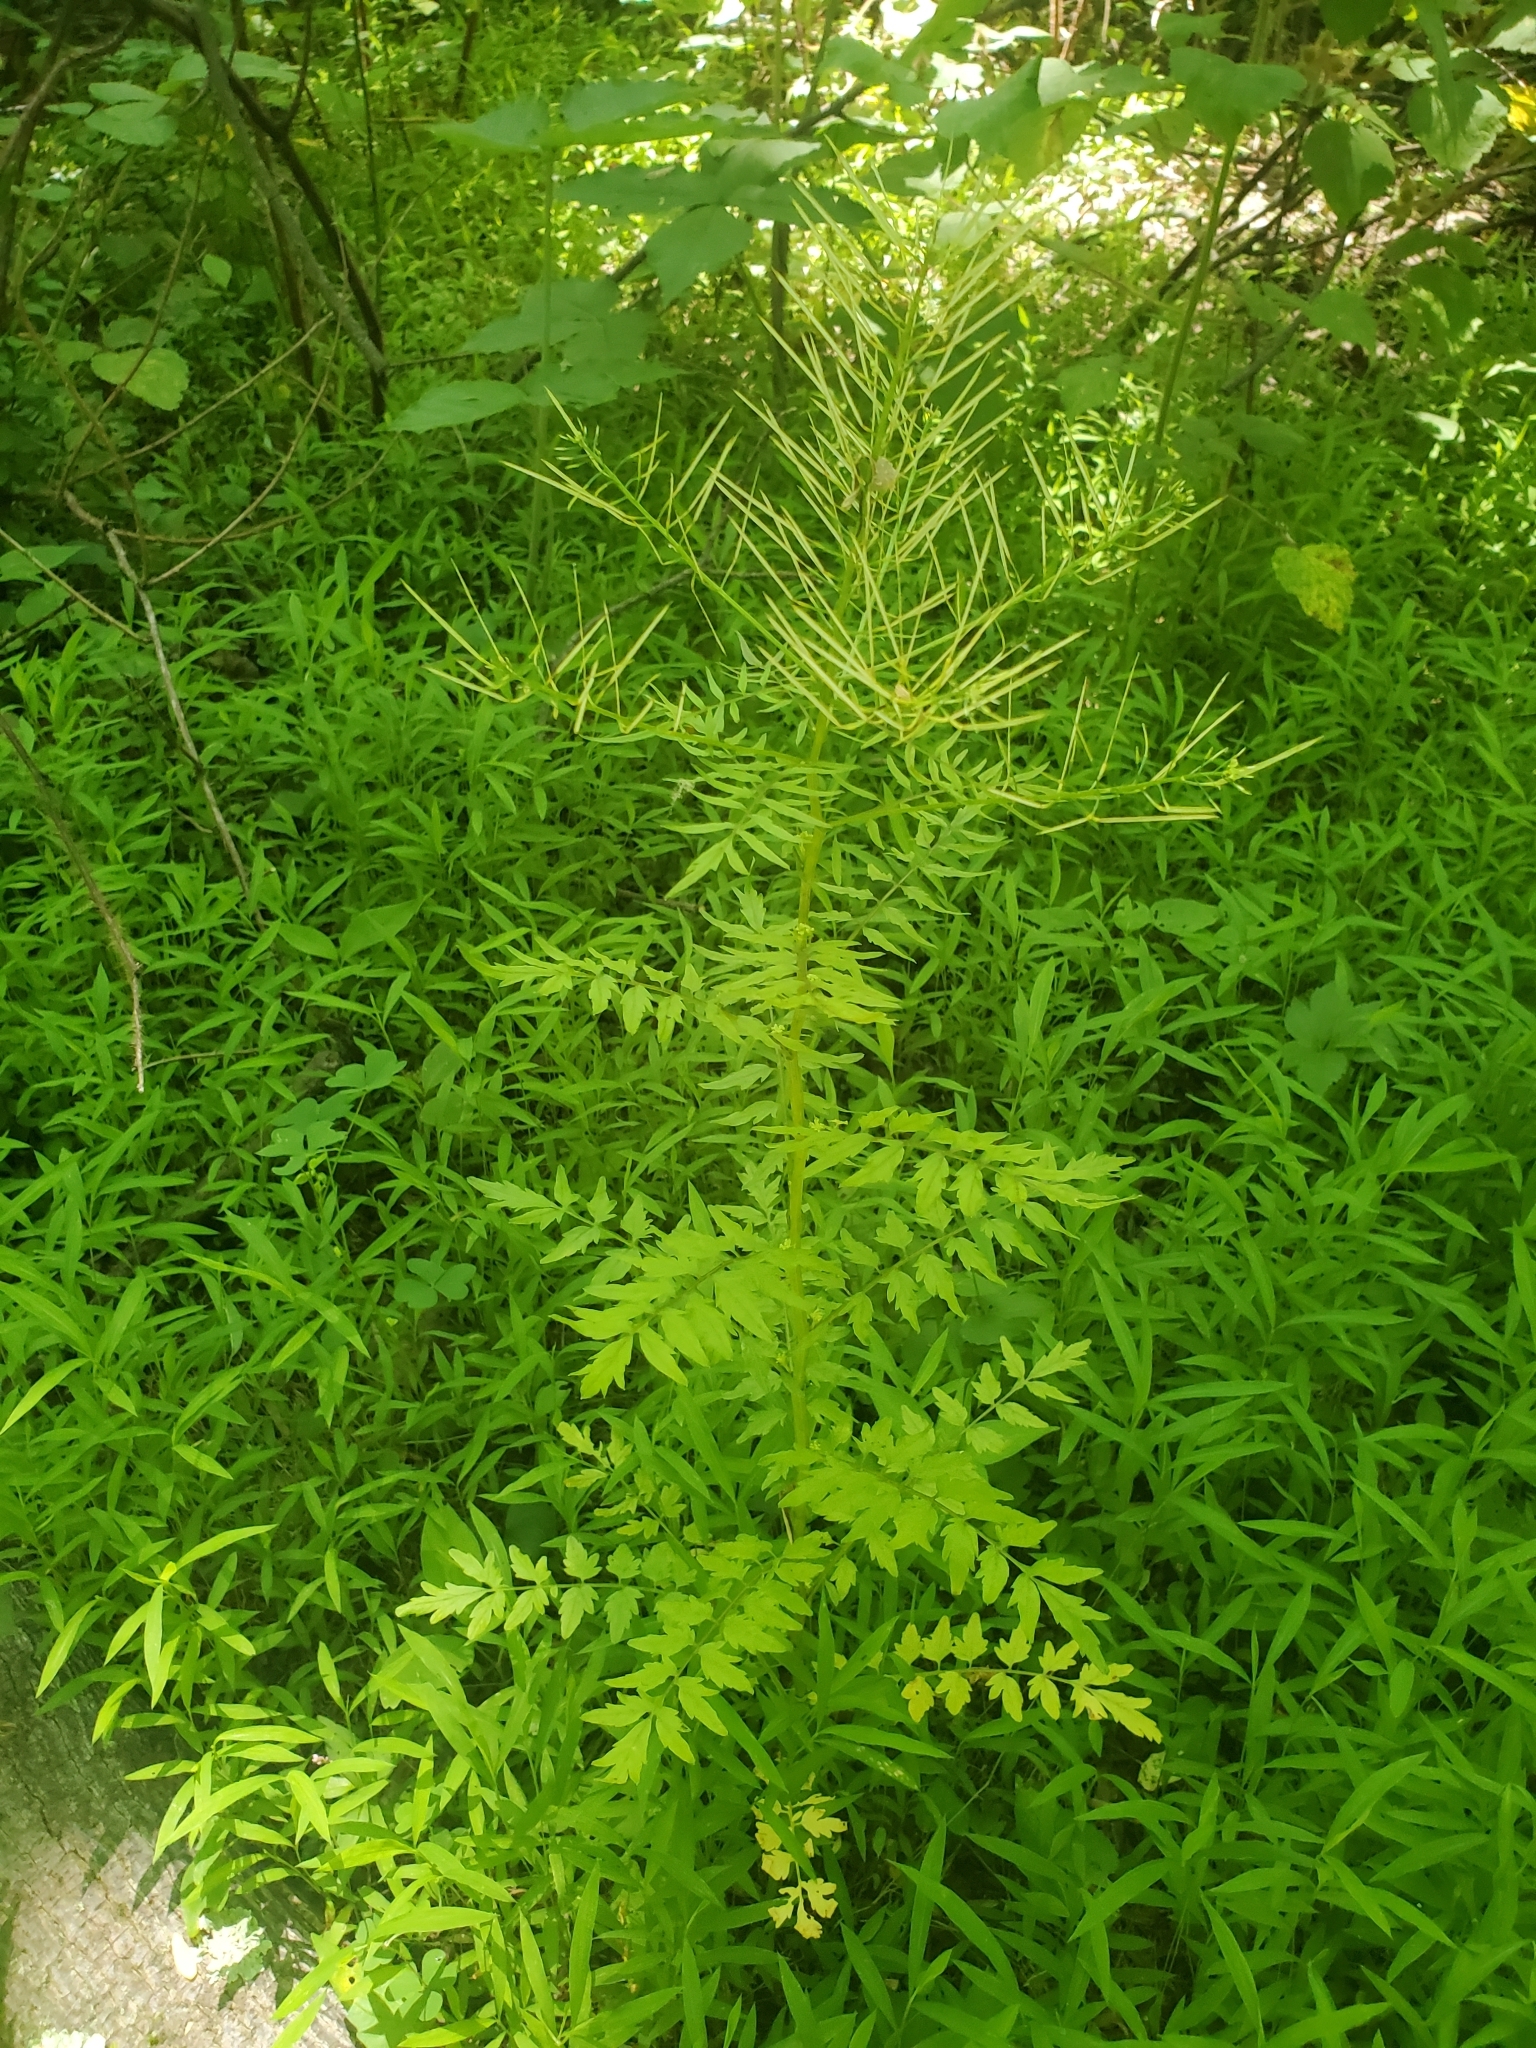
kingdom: Plantae
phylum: Tracheophyta
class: Magnoliopsida
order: Brassicales
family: Brassicaceae
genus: Cardamine
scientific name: Cardamine impatiens
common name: Narrow-leaved bitter-cress
